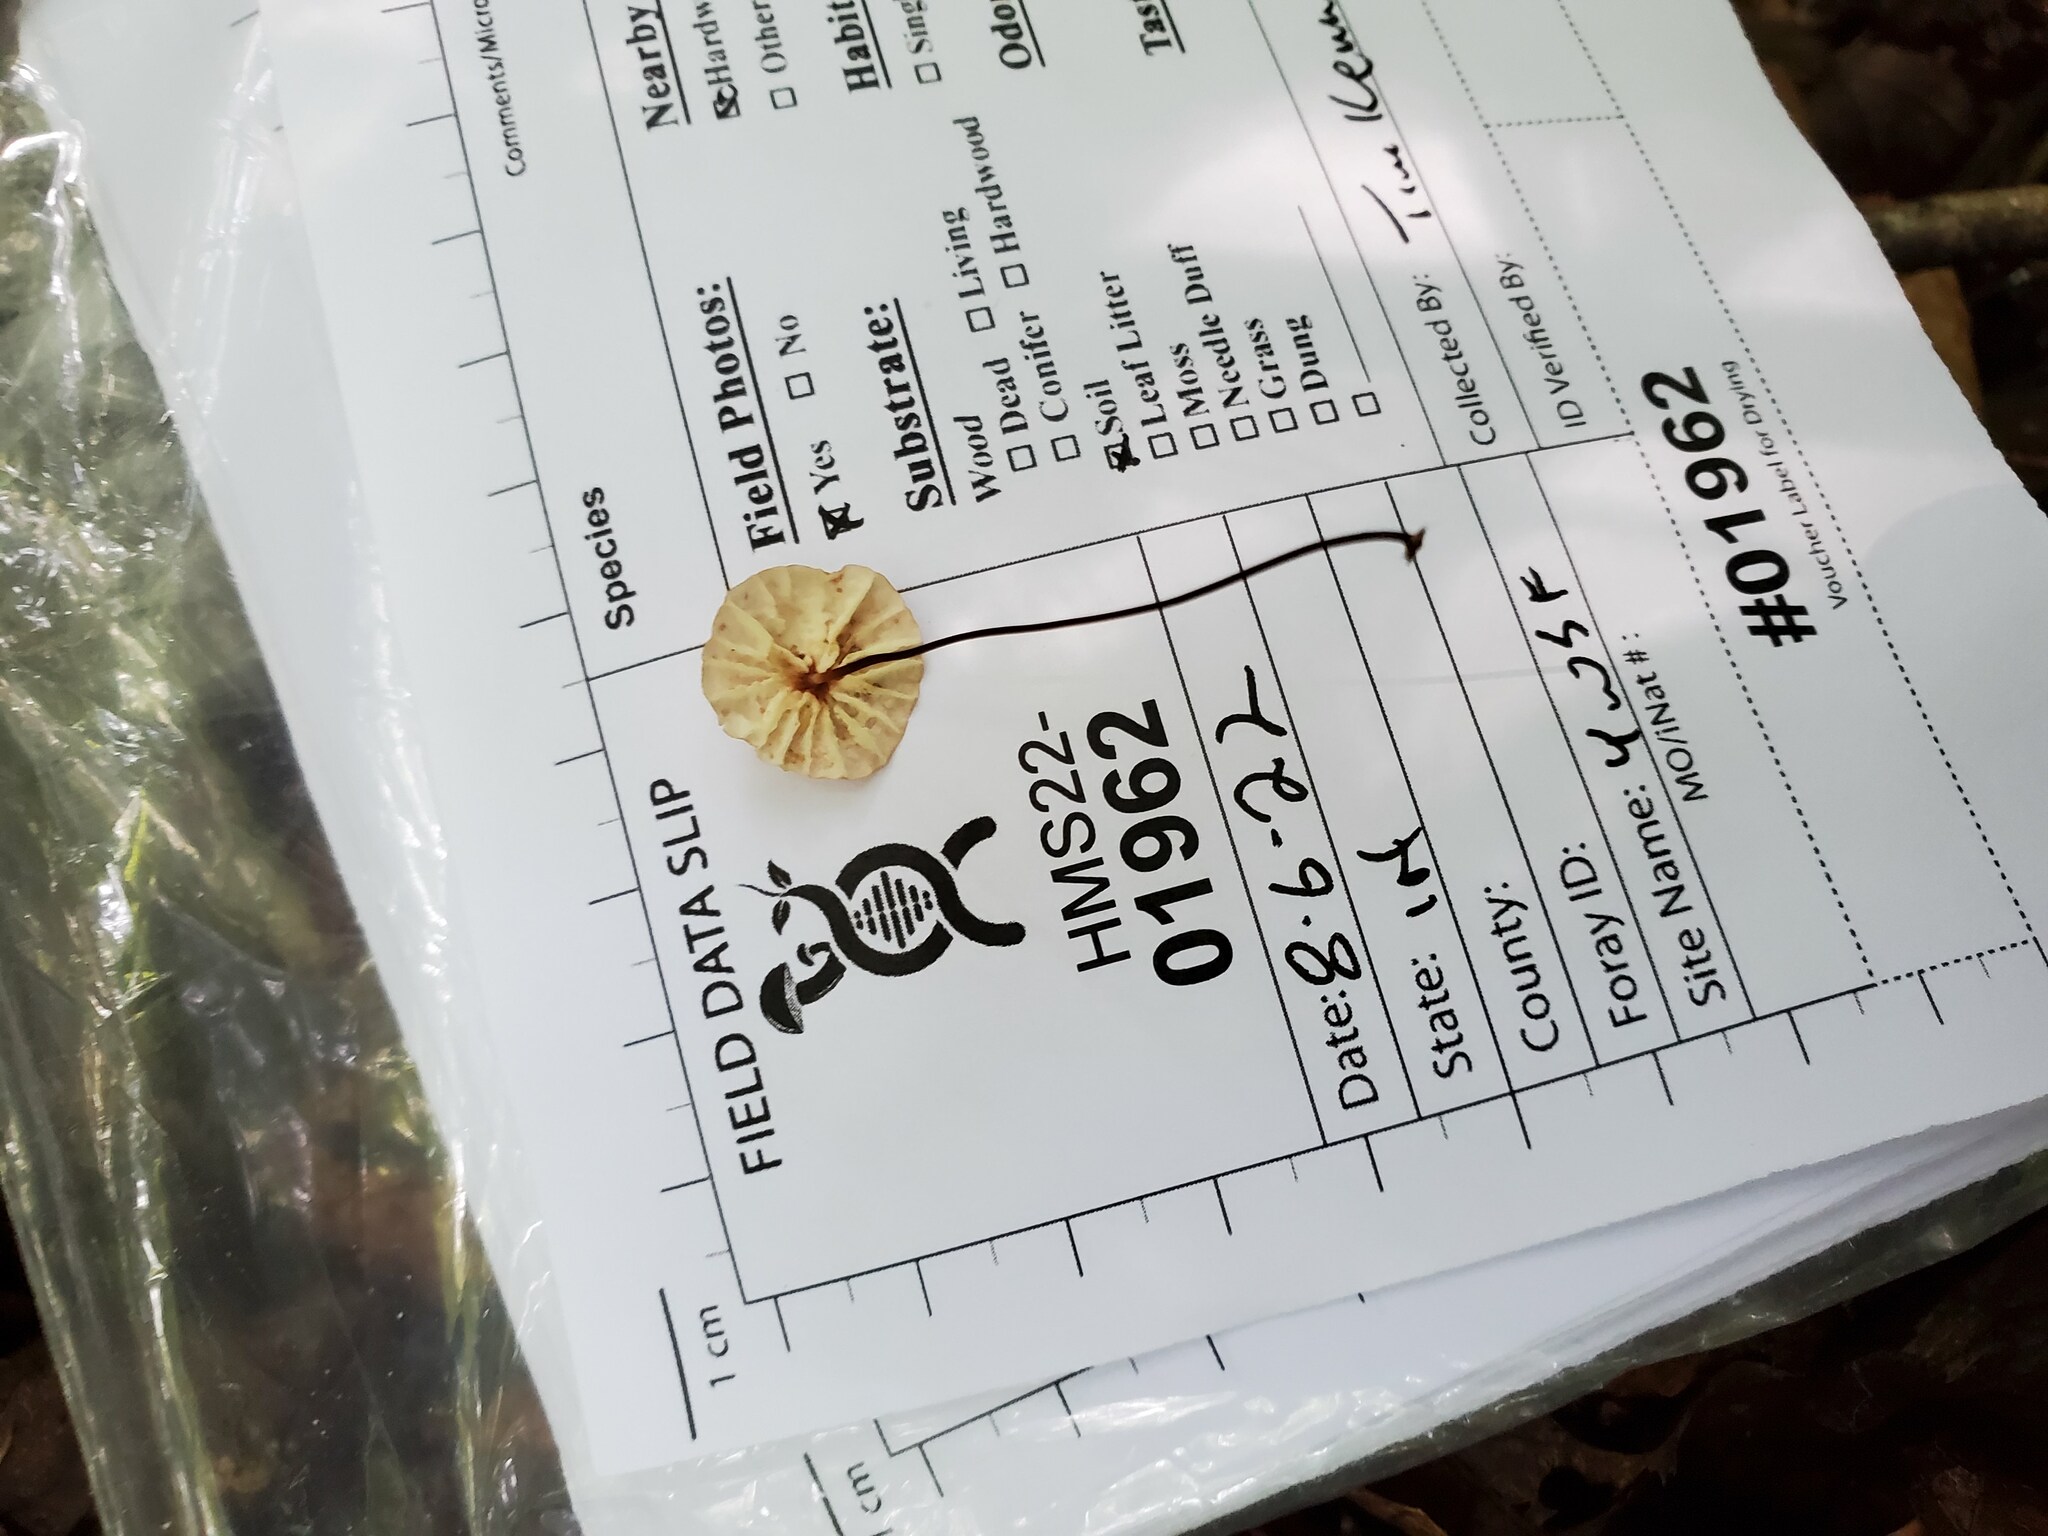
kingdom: Fungi
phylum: Basidiomycota
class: Agaricomycetes
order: Agaricales
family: Marasmiaceae
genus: Marasmius
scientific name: Marasmius pulcherripes
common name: Rosy parachute
